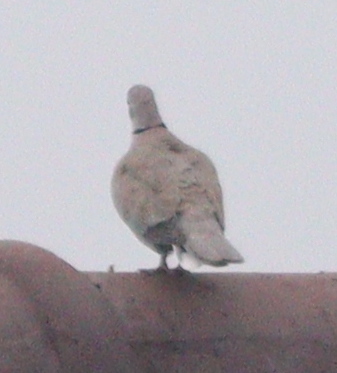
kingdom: Animalia
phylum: Chordata
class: Aves
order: Columbiformes
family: Columbidae
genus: Streptopelia
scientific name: Streptopelia decaocto
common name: Eurasian collared dove
